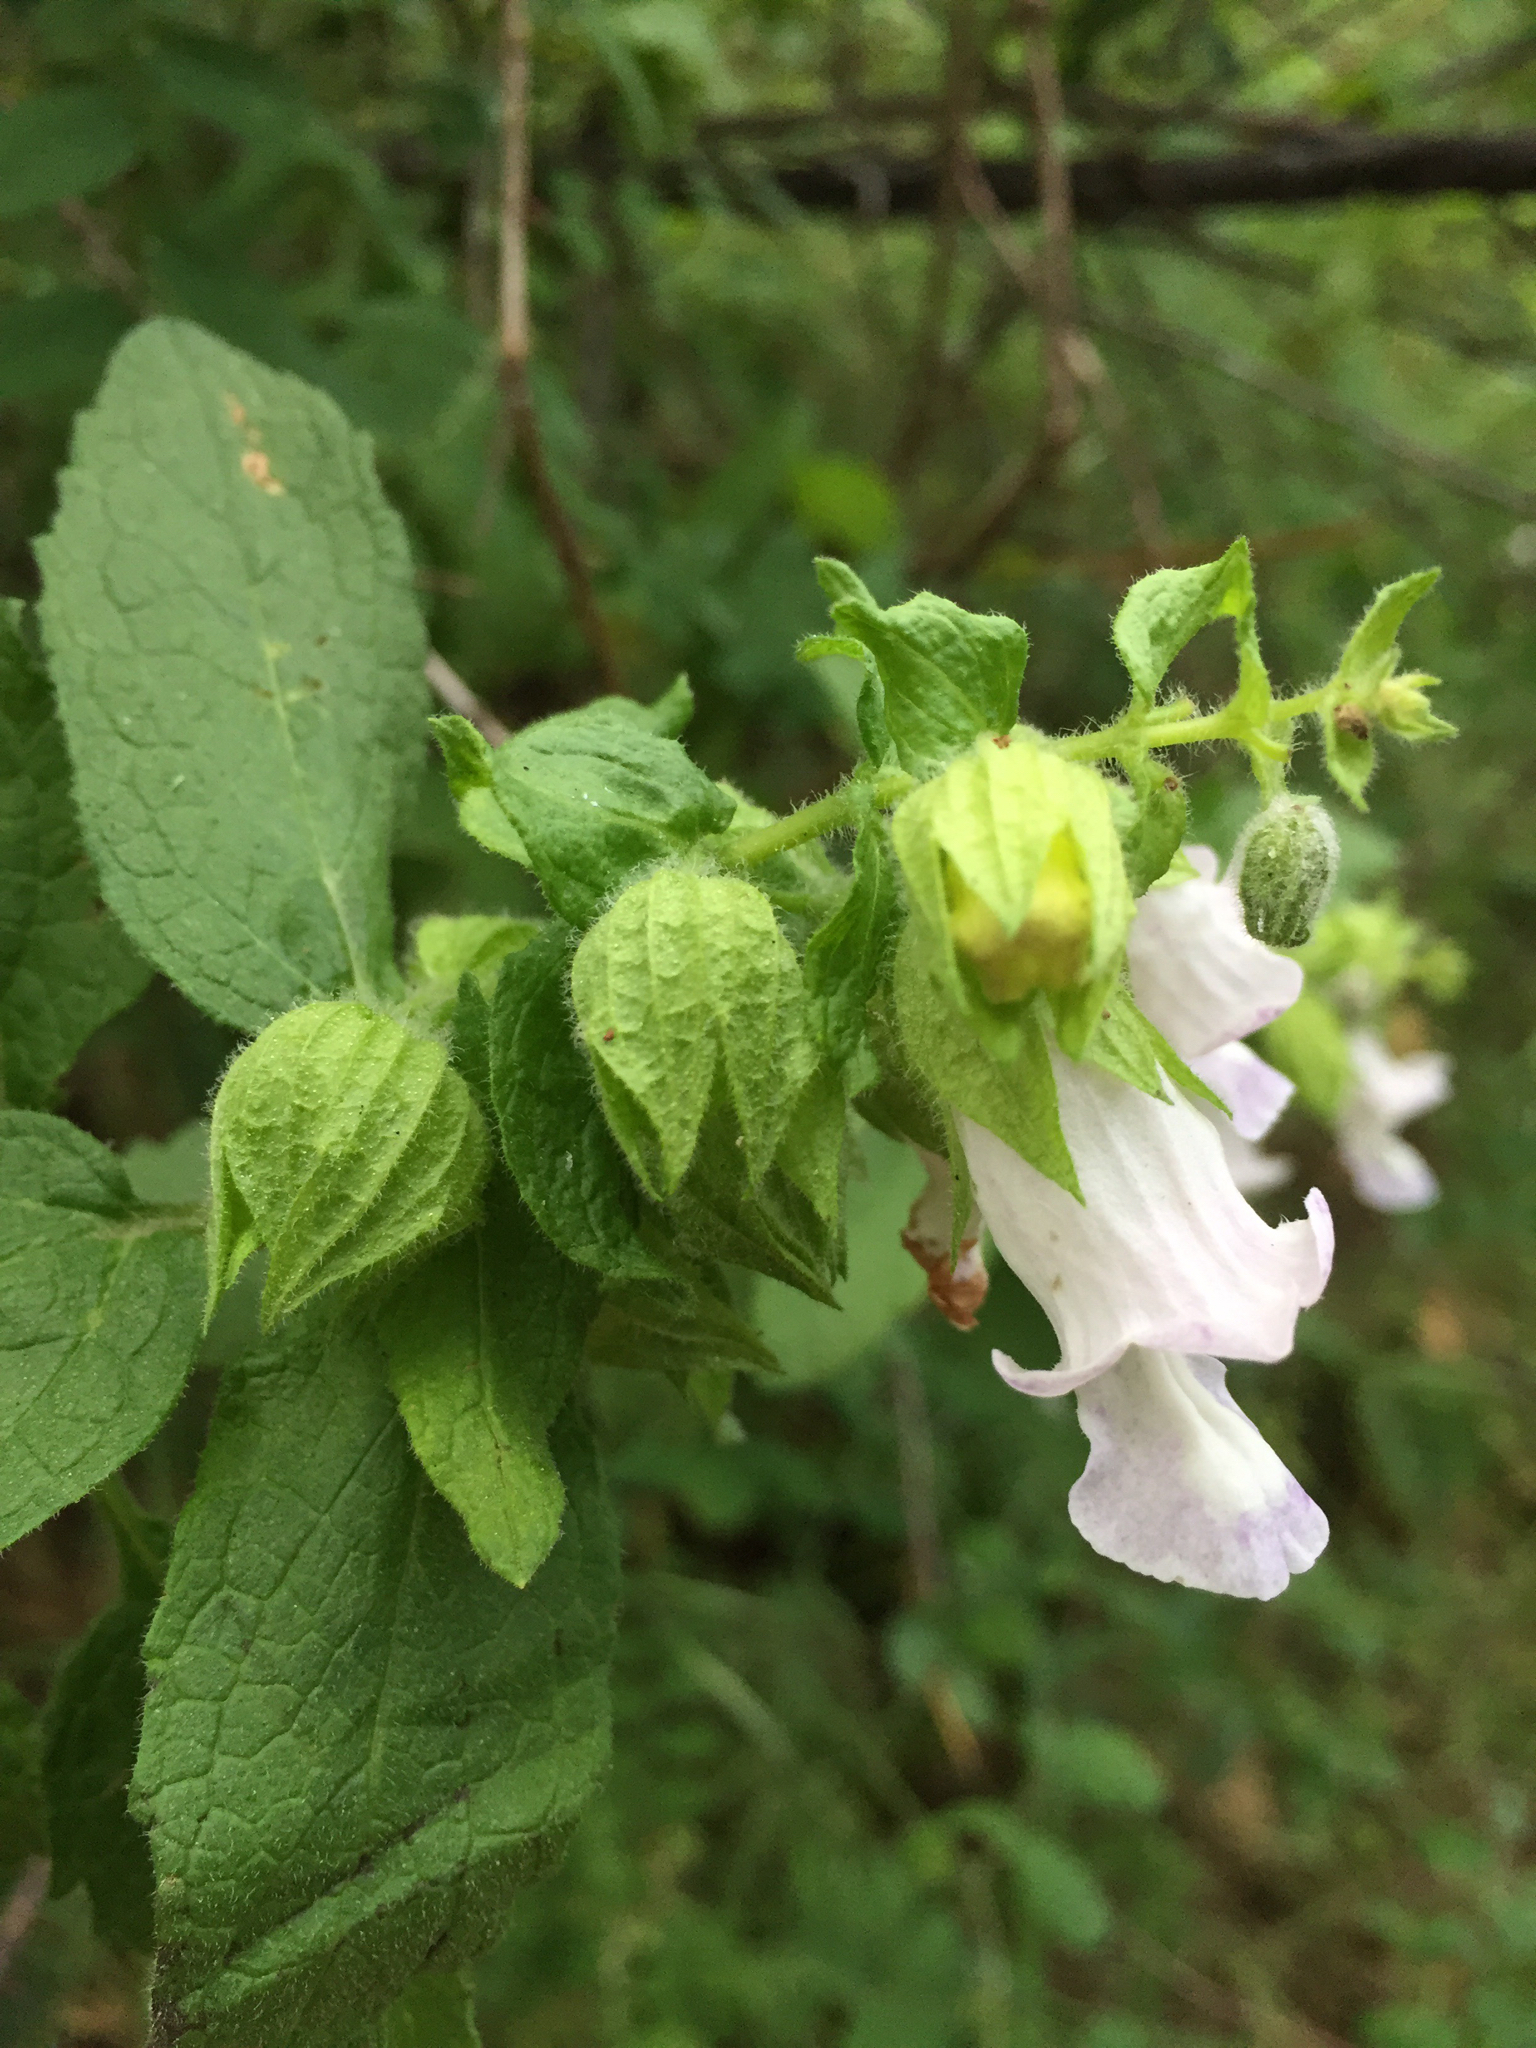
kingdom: Plantae
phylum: Tracheophyta
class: Magnoliopsida
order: Lamiales
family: Lamiaceae
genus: Lepechinia
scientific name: Lepechinia calycina
